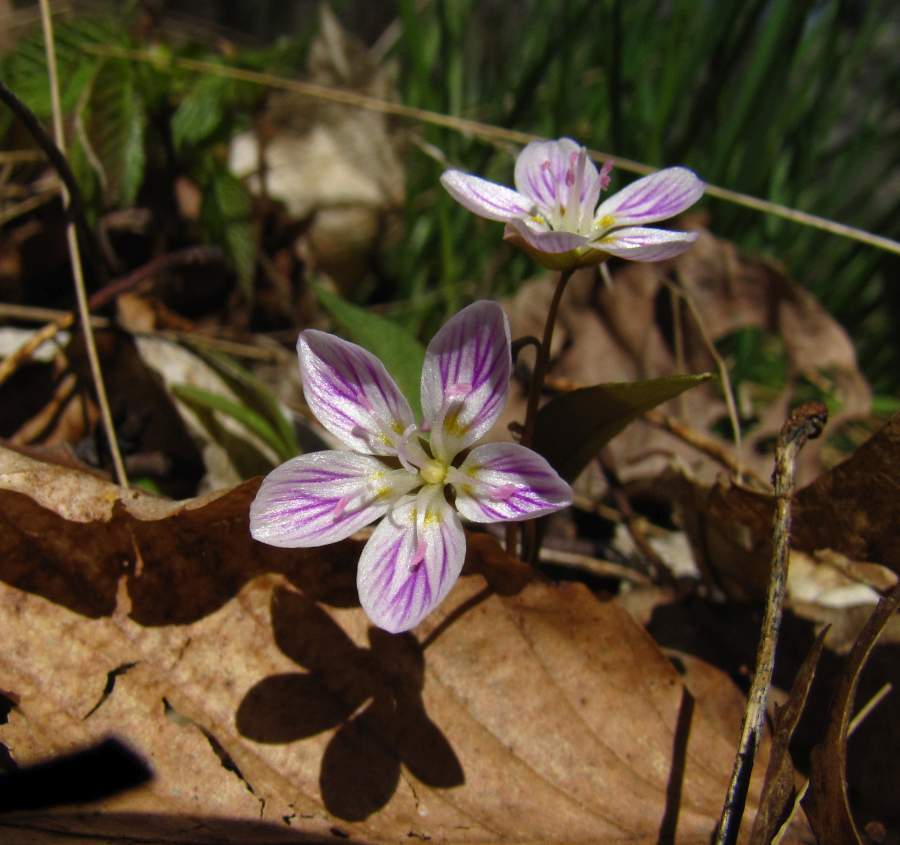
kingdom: Plantae
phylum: Tracheophyta
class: Magnoliopsida
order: Caryophyllales
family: Montiaceae
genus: Claytonia
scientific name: Claytonia caroliniana
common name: Carolina spring beauty
